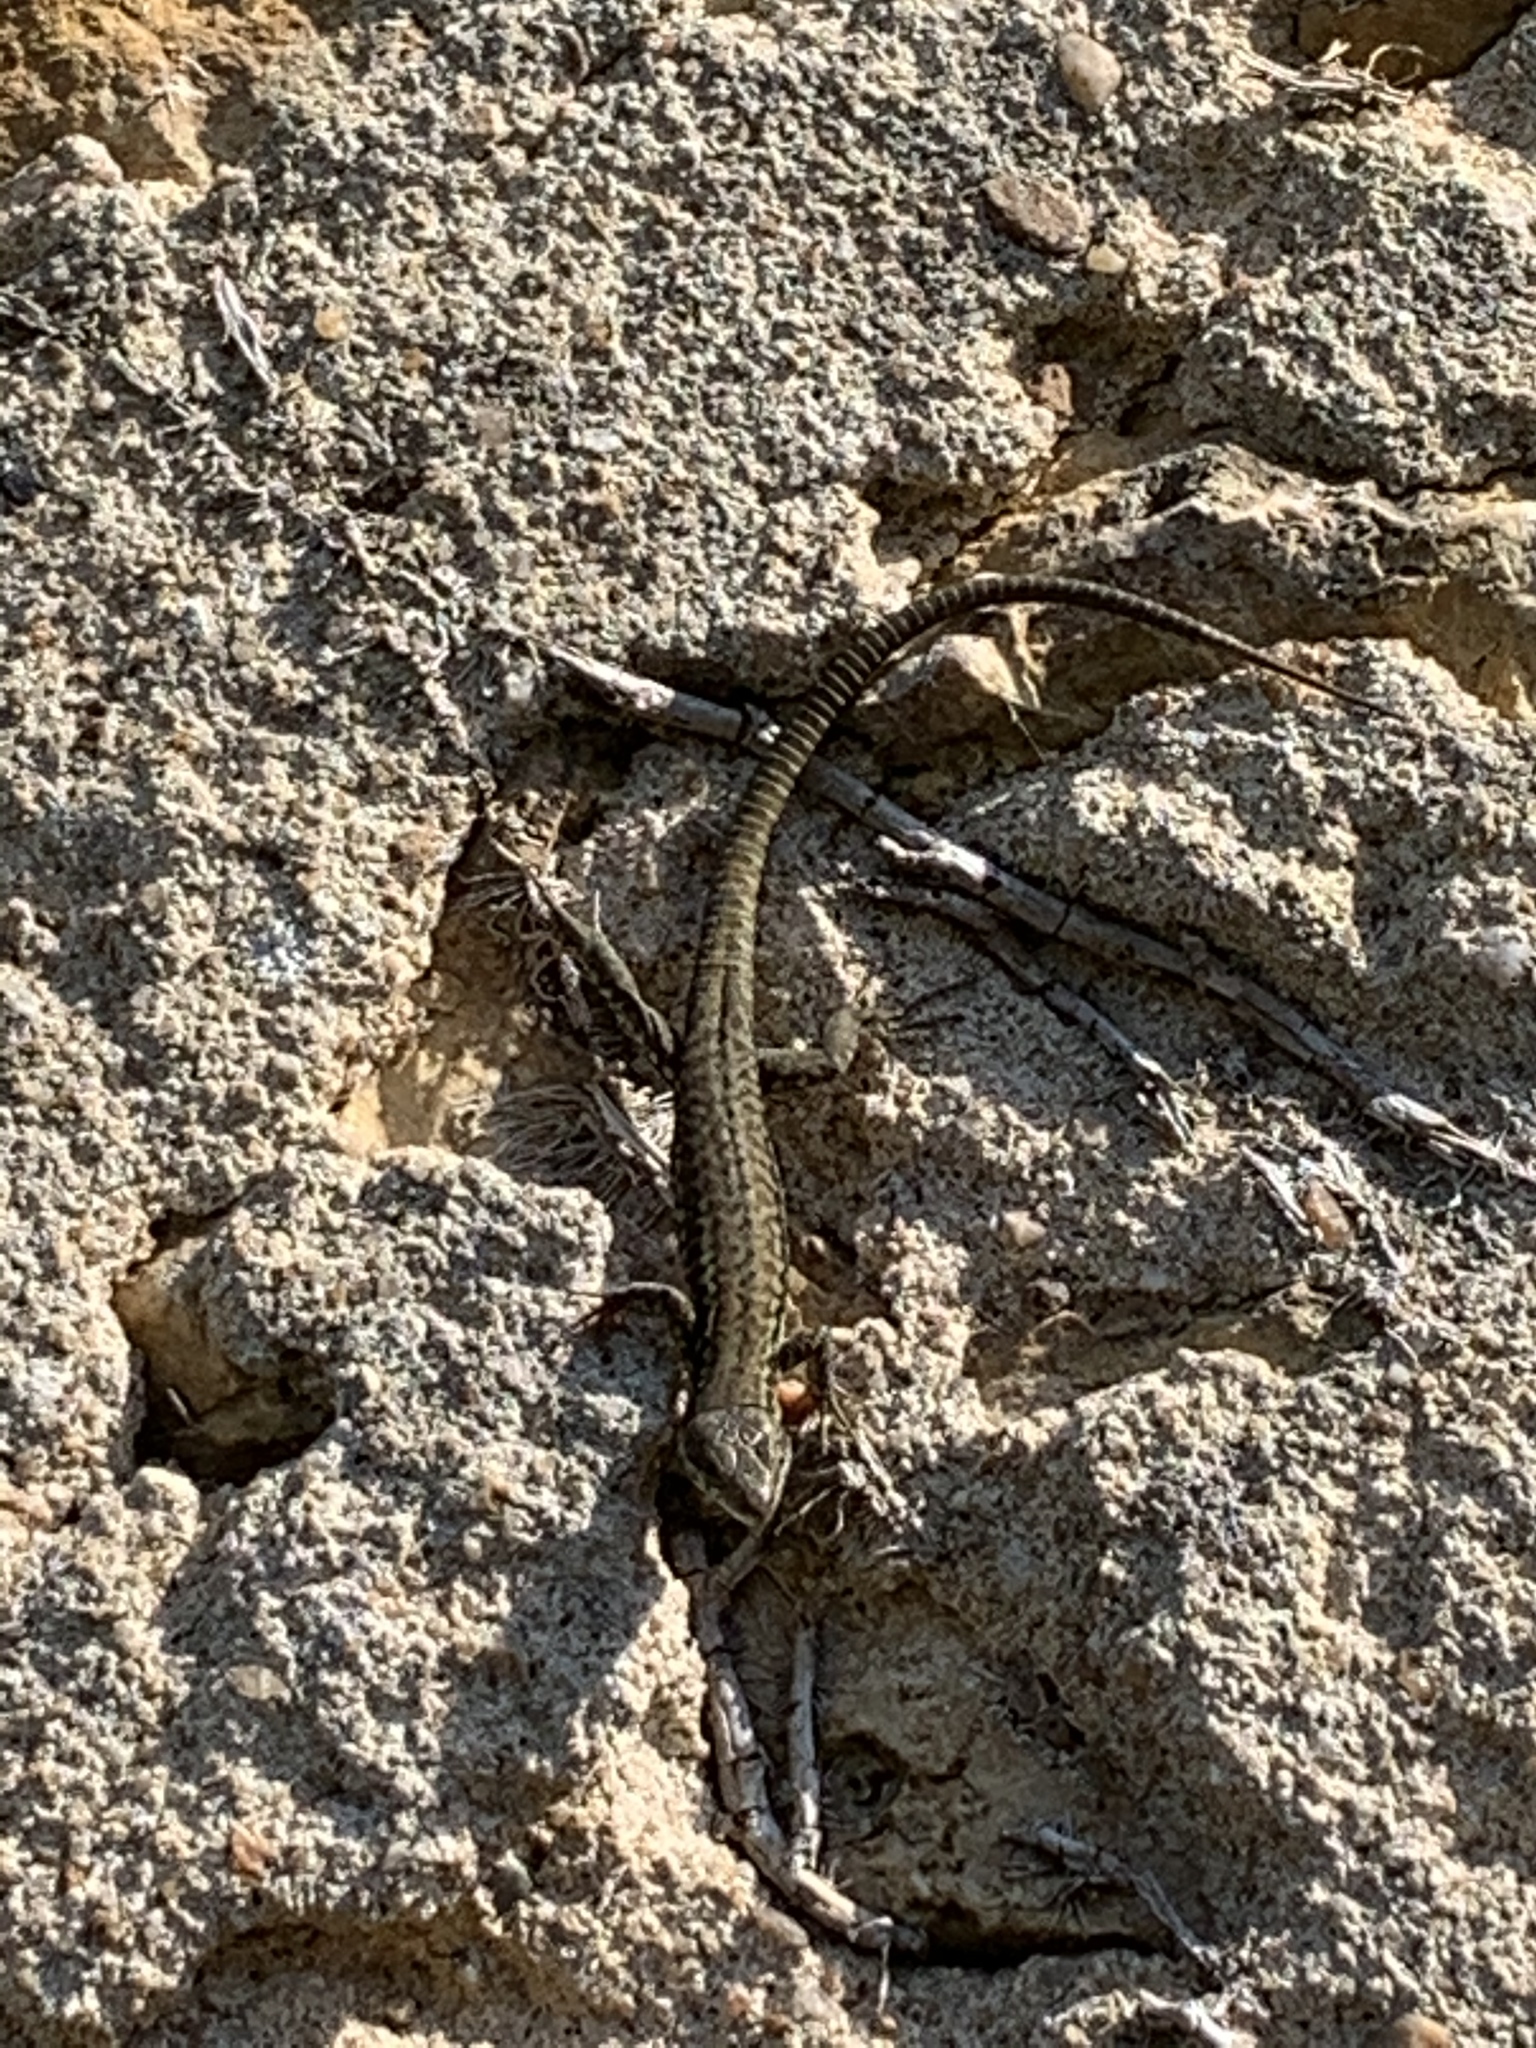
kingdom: Animalia
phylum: Chordata
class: Squamata
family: Lacertidae
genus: Podarcis
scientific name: Podarcis muralis
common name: Common wall lizard
